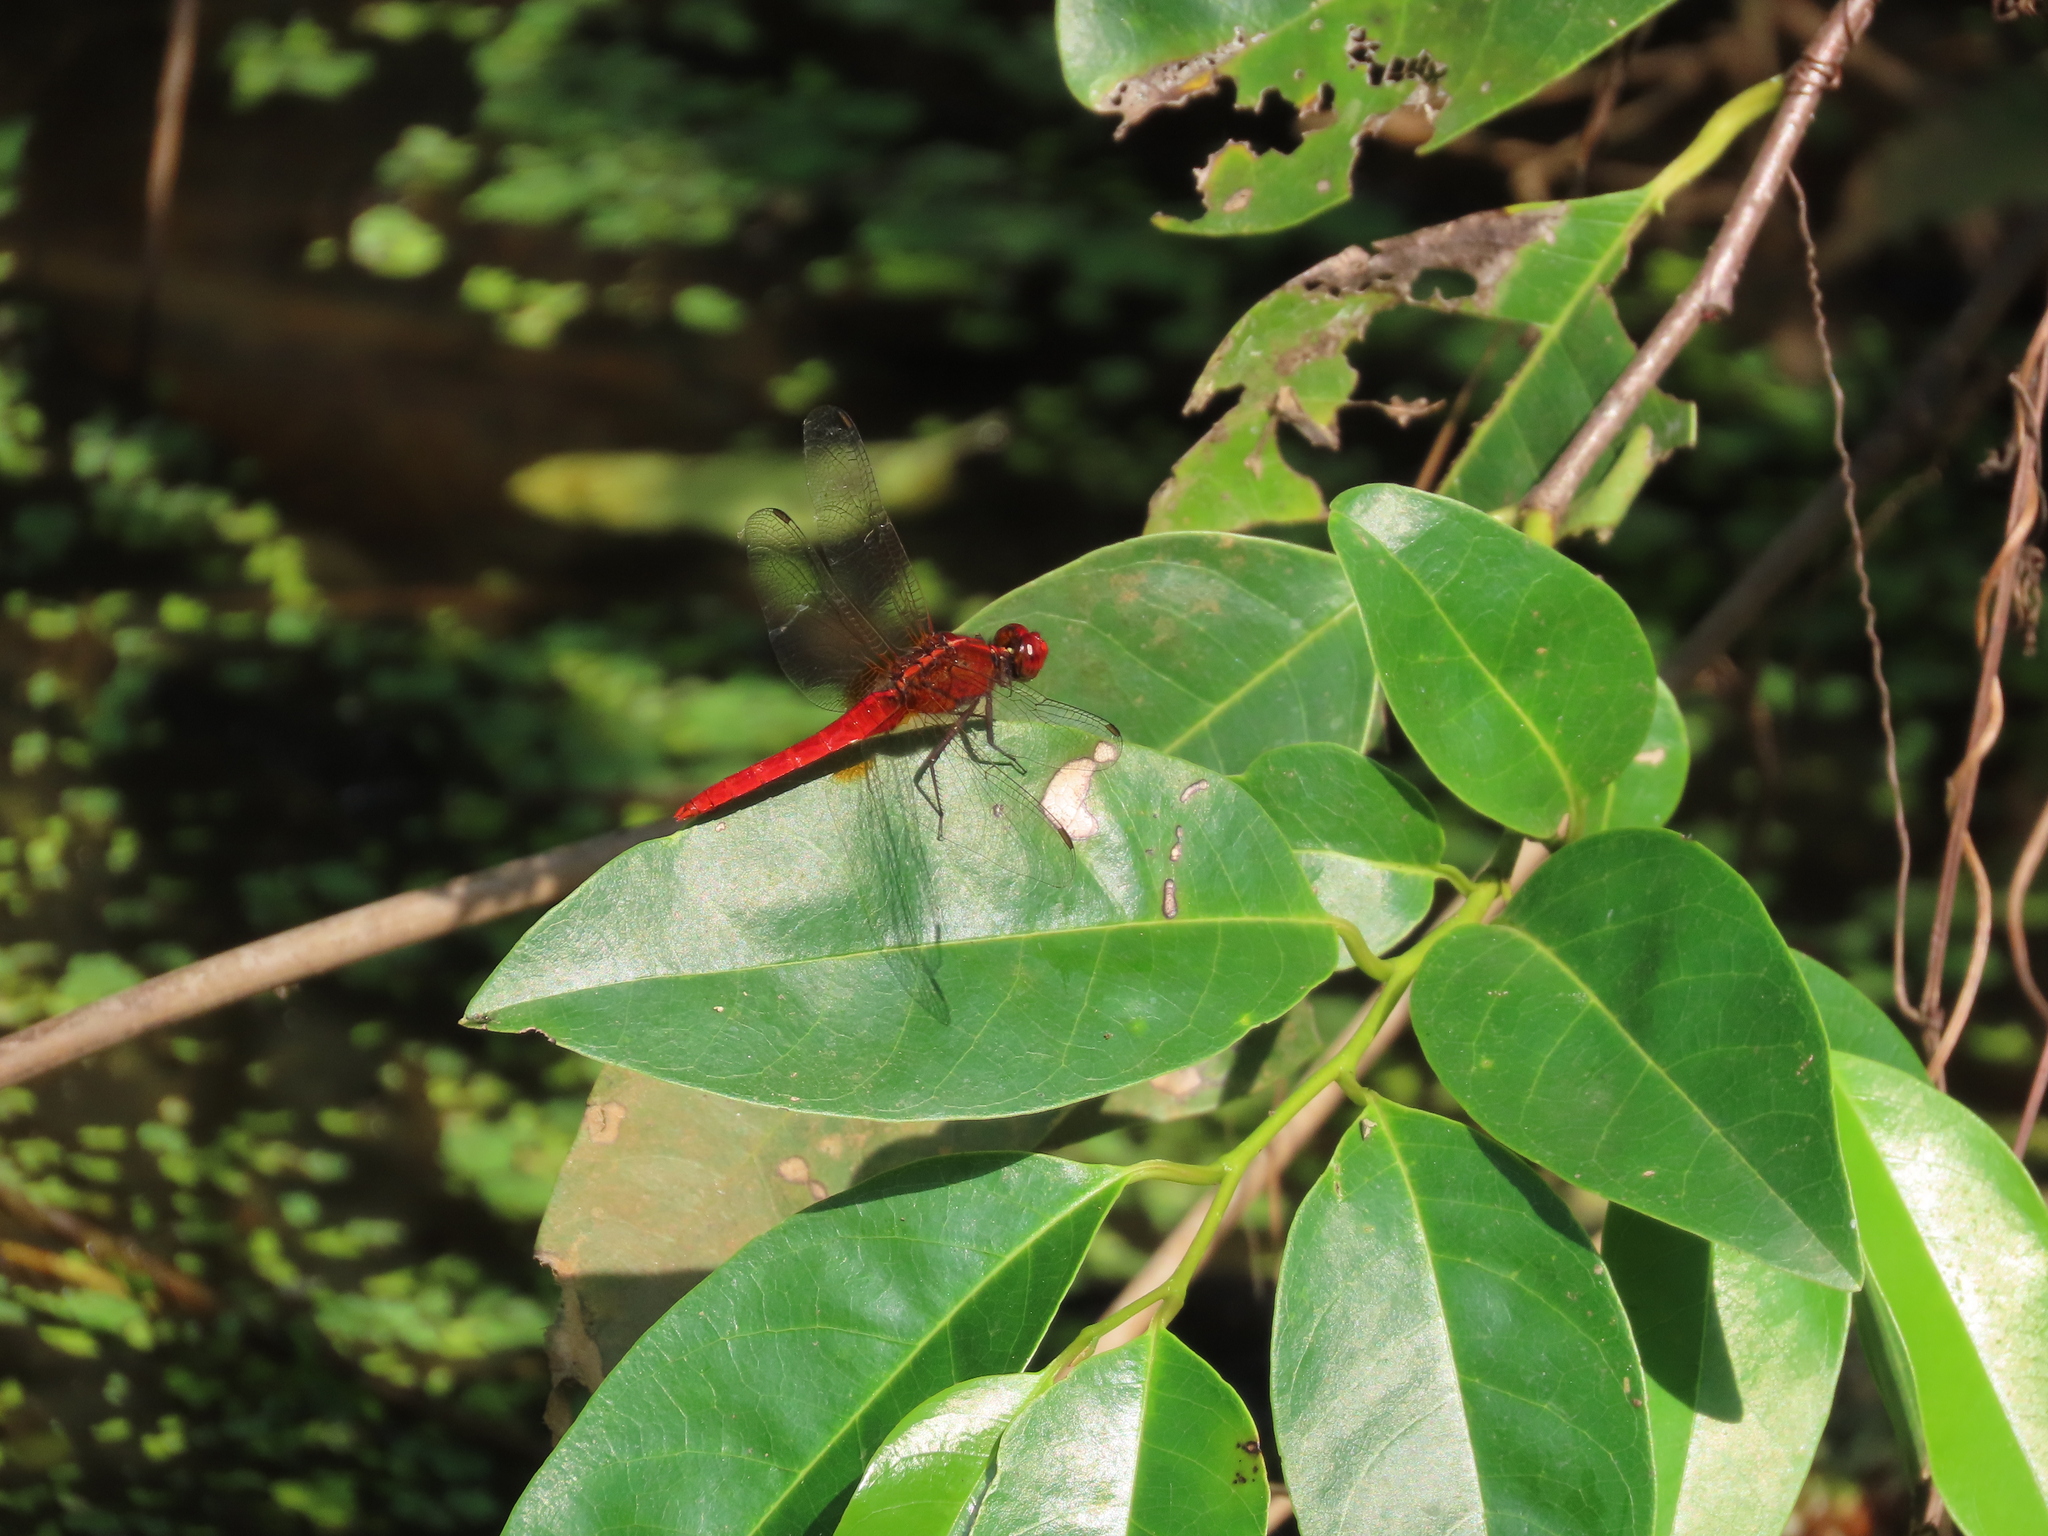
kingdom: Animalia
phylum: Arthropoda
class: Insecta
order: Odonata
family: Libellulidae
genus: Rhodothemis
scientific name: Rhodothemis rufa
